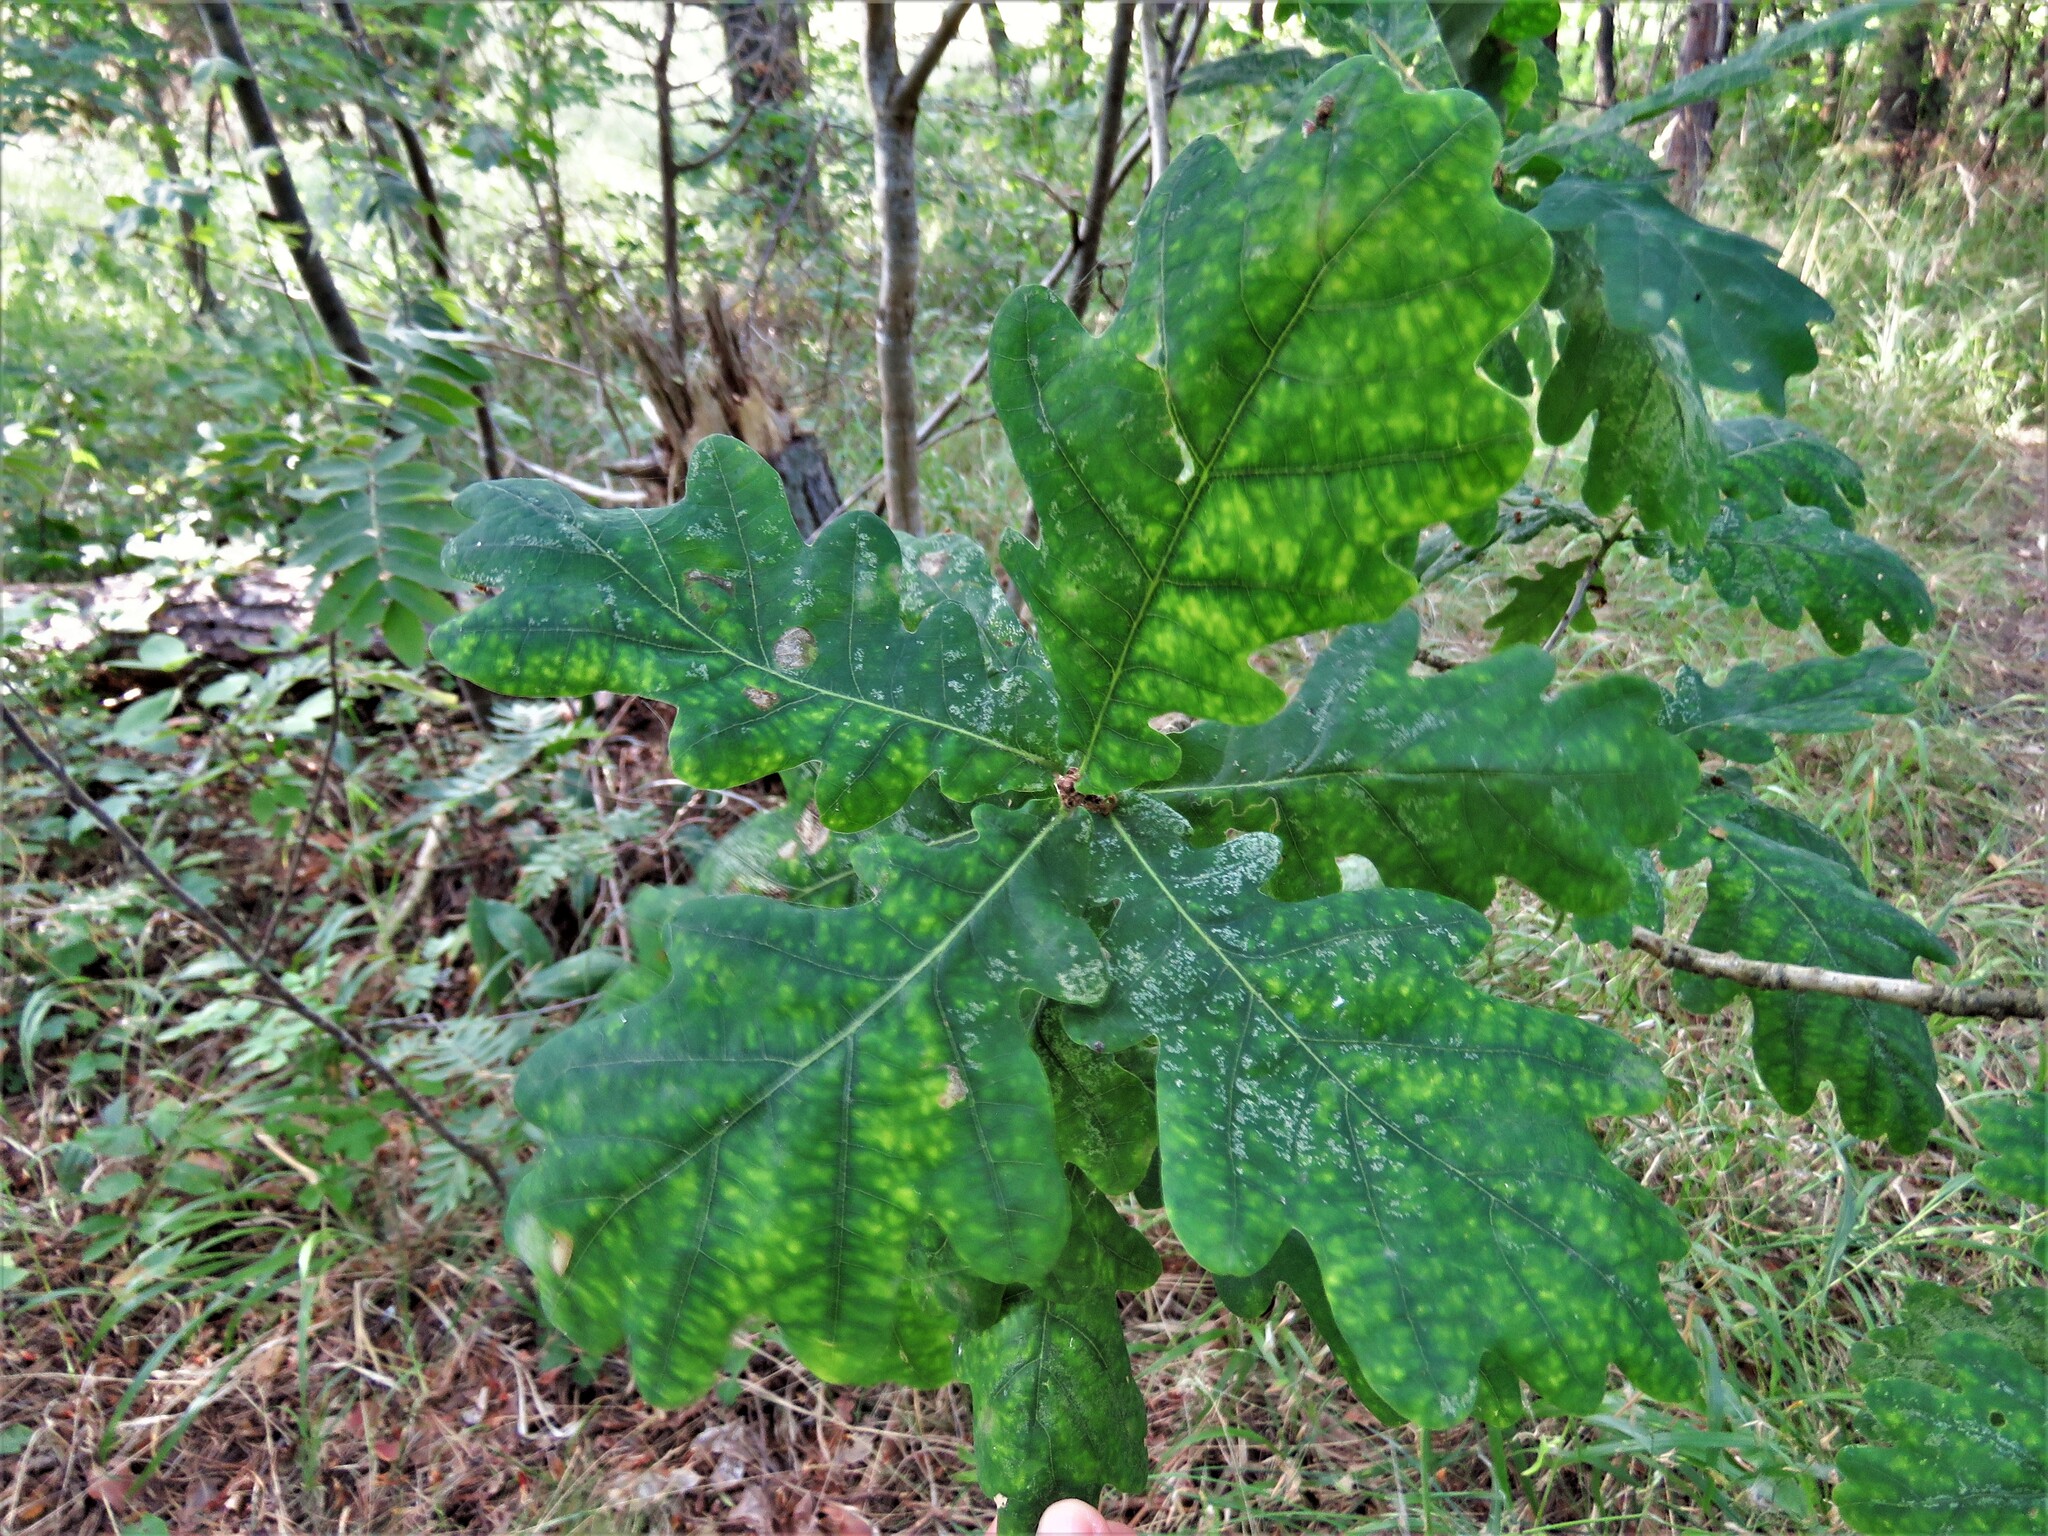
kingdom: Plantae
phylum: Tracheophyta
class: Magnoliopsida
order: Fagales
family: Fagaceae
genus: Quercus
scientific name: Quercus robur
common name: Pedunculate oak
